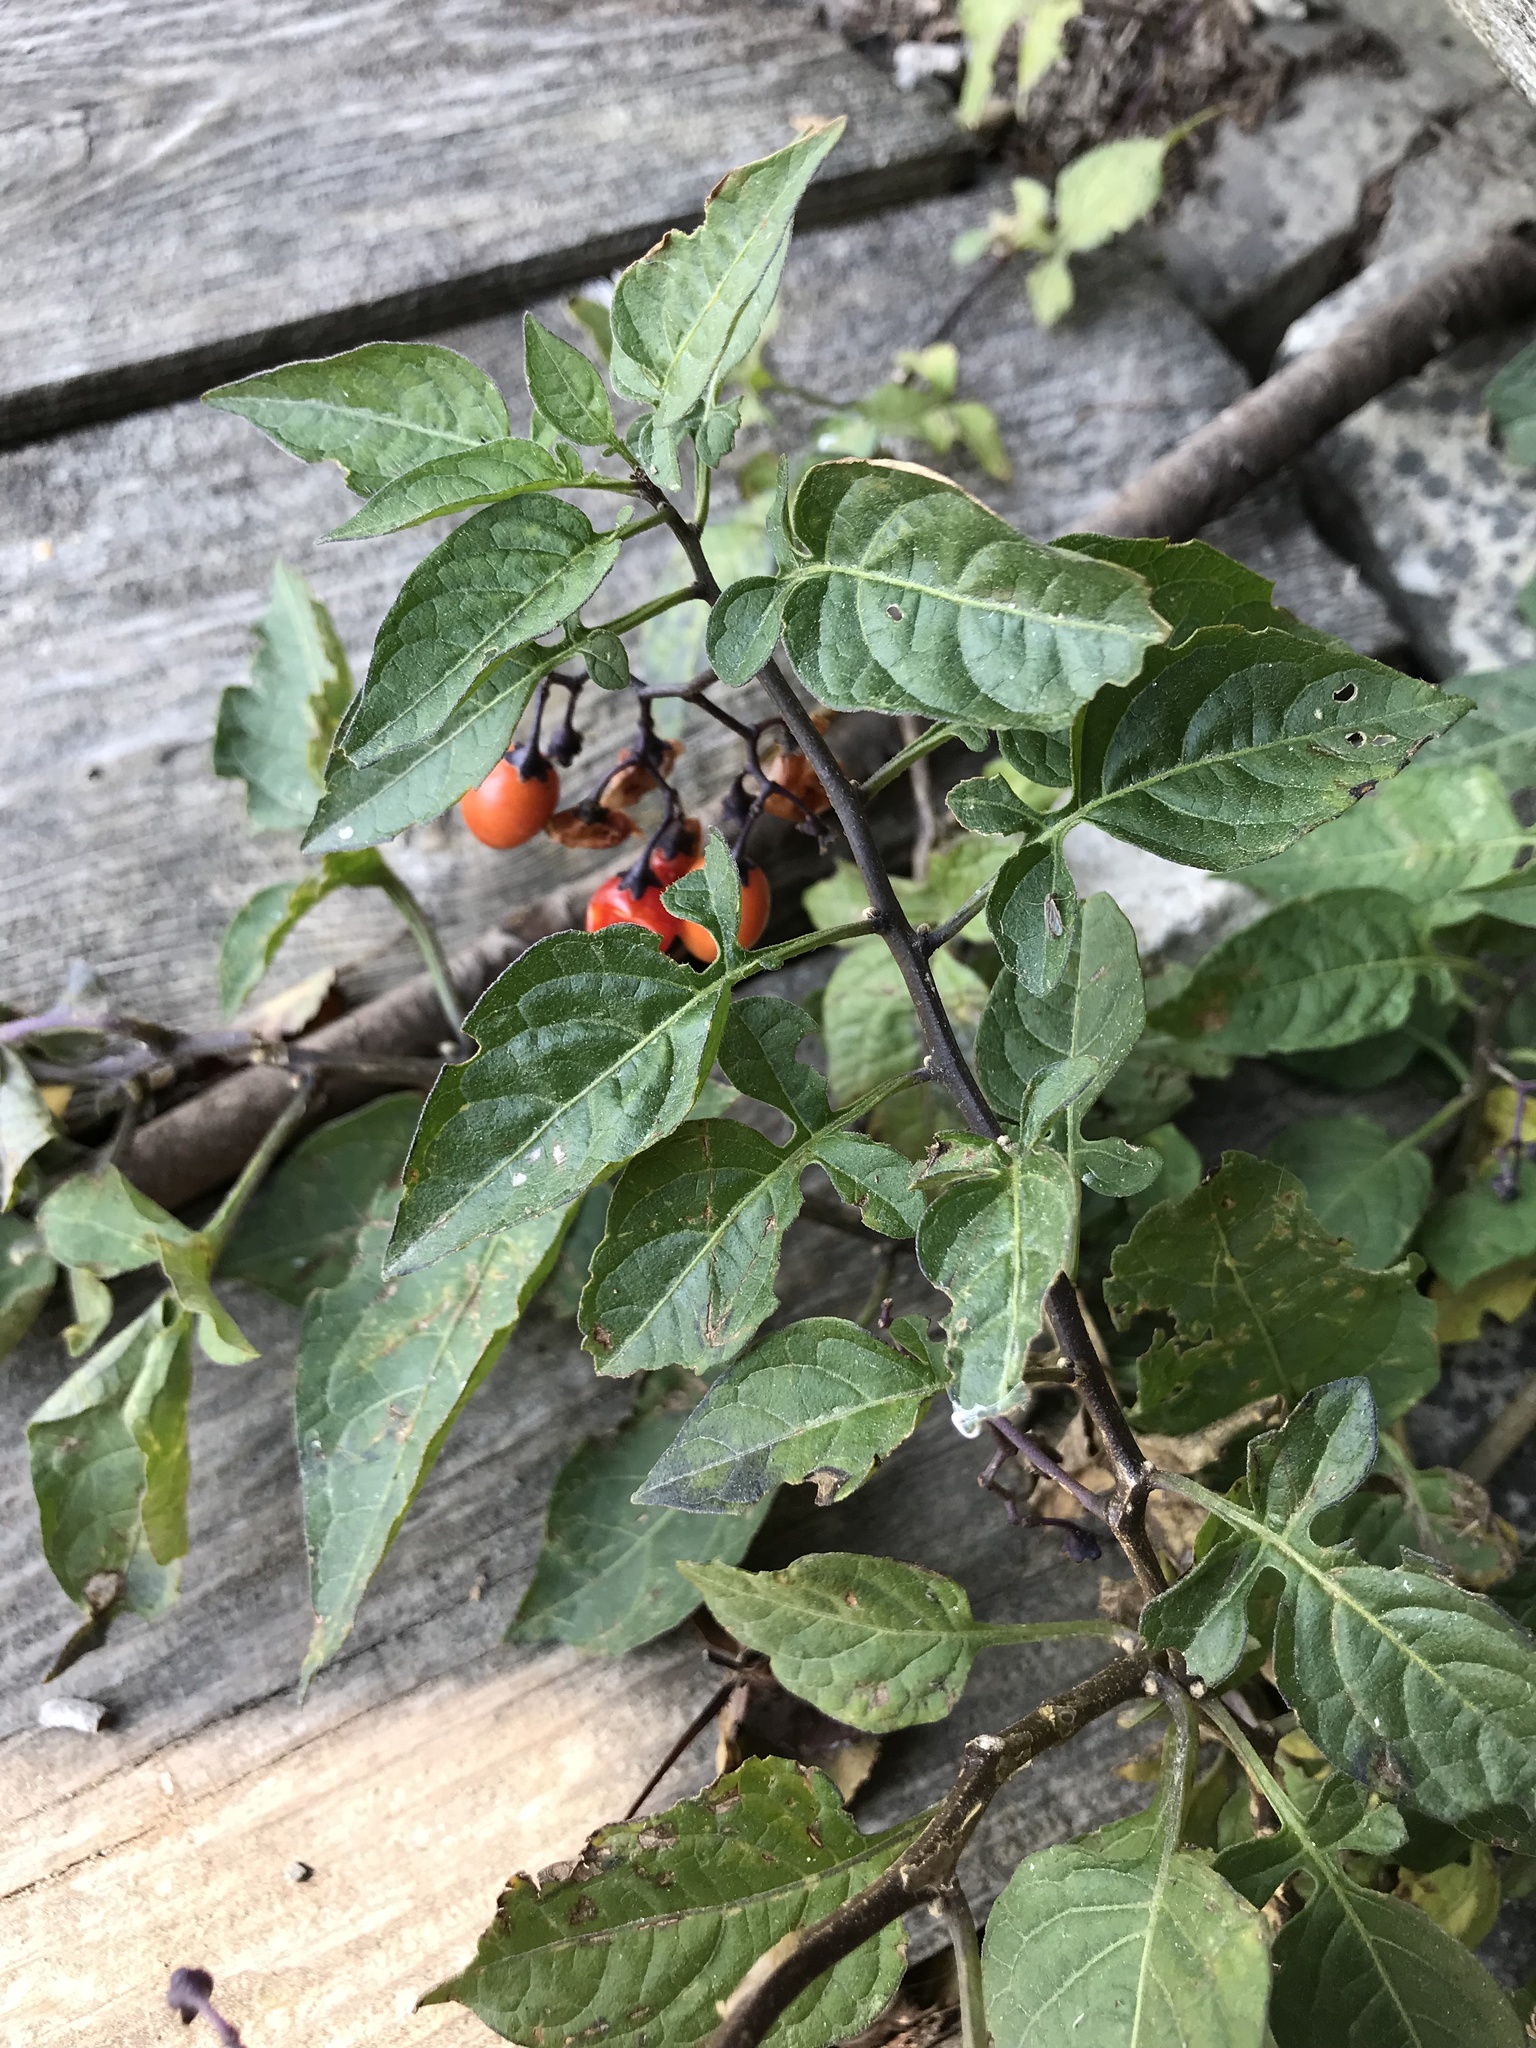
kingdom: Plantae
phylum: Tracheophyta
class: Magnoliopsida
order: Solanales
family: Solanaceae
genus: Solanum
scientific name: Solanum dulcamara
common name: Climbing nightshade
